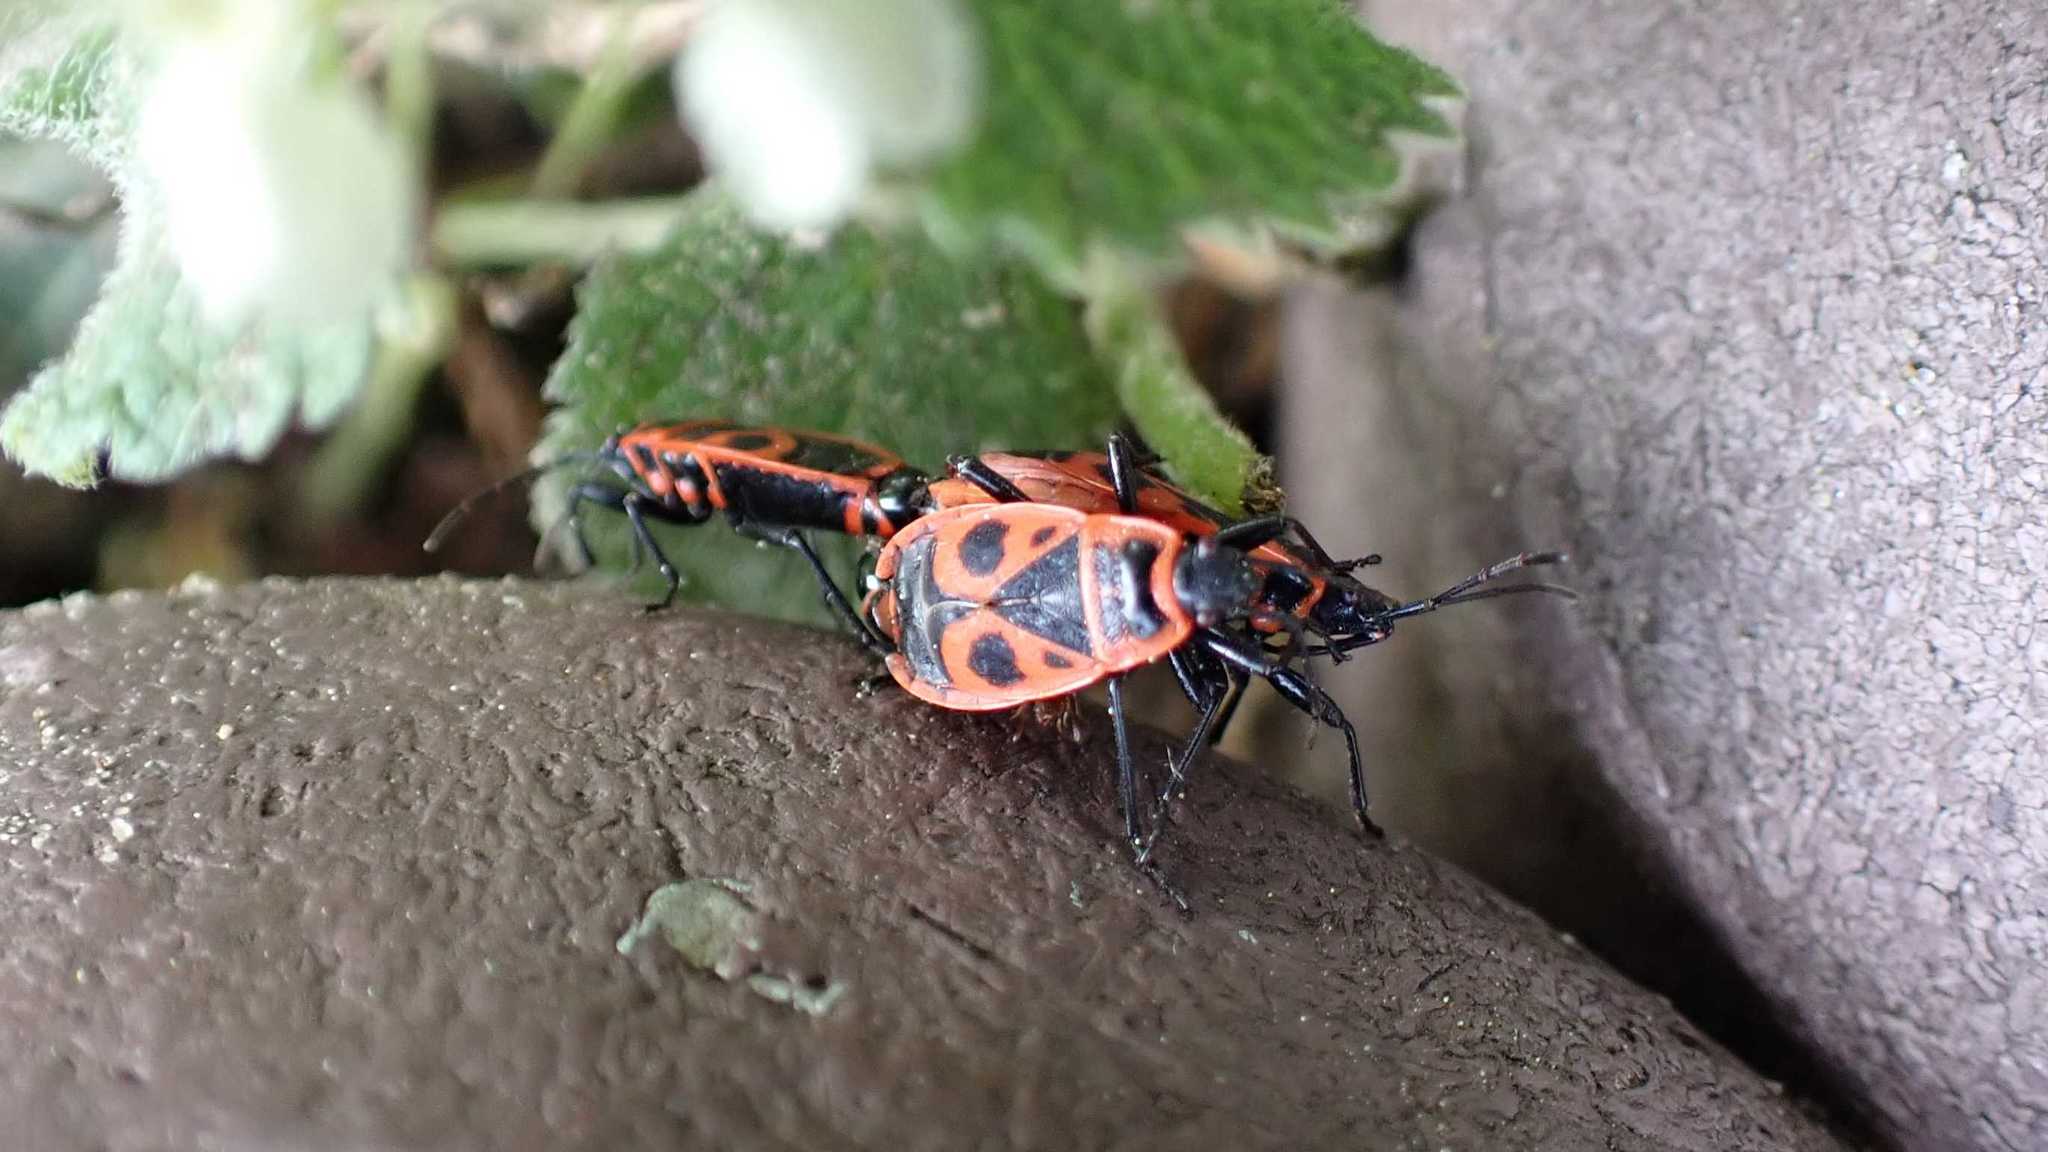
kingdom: Animalia
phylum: Arthropoda
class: Insecta
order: Hemiptera
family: Pyrrhocoridae
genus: Pyrrhocoris
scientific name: Pyrrhocoris apterus
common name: Firebug
